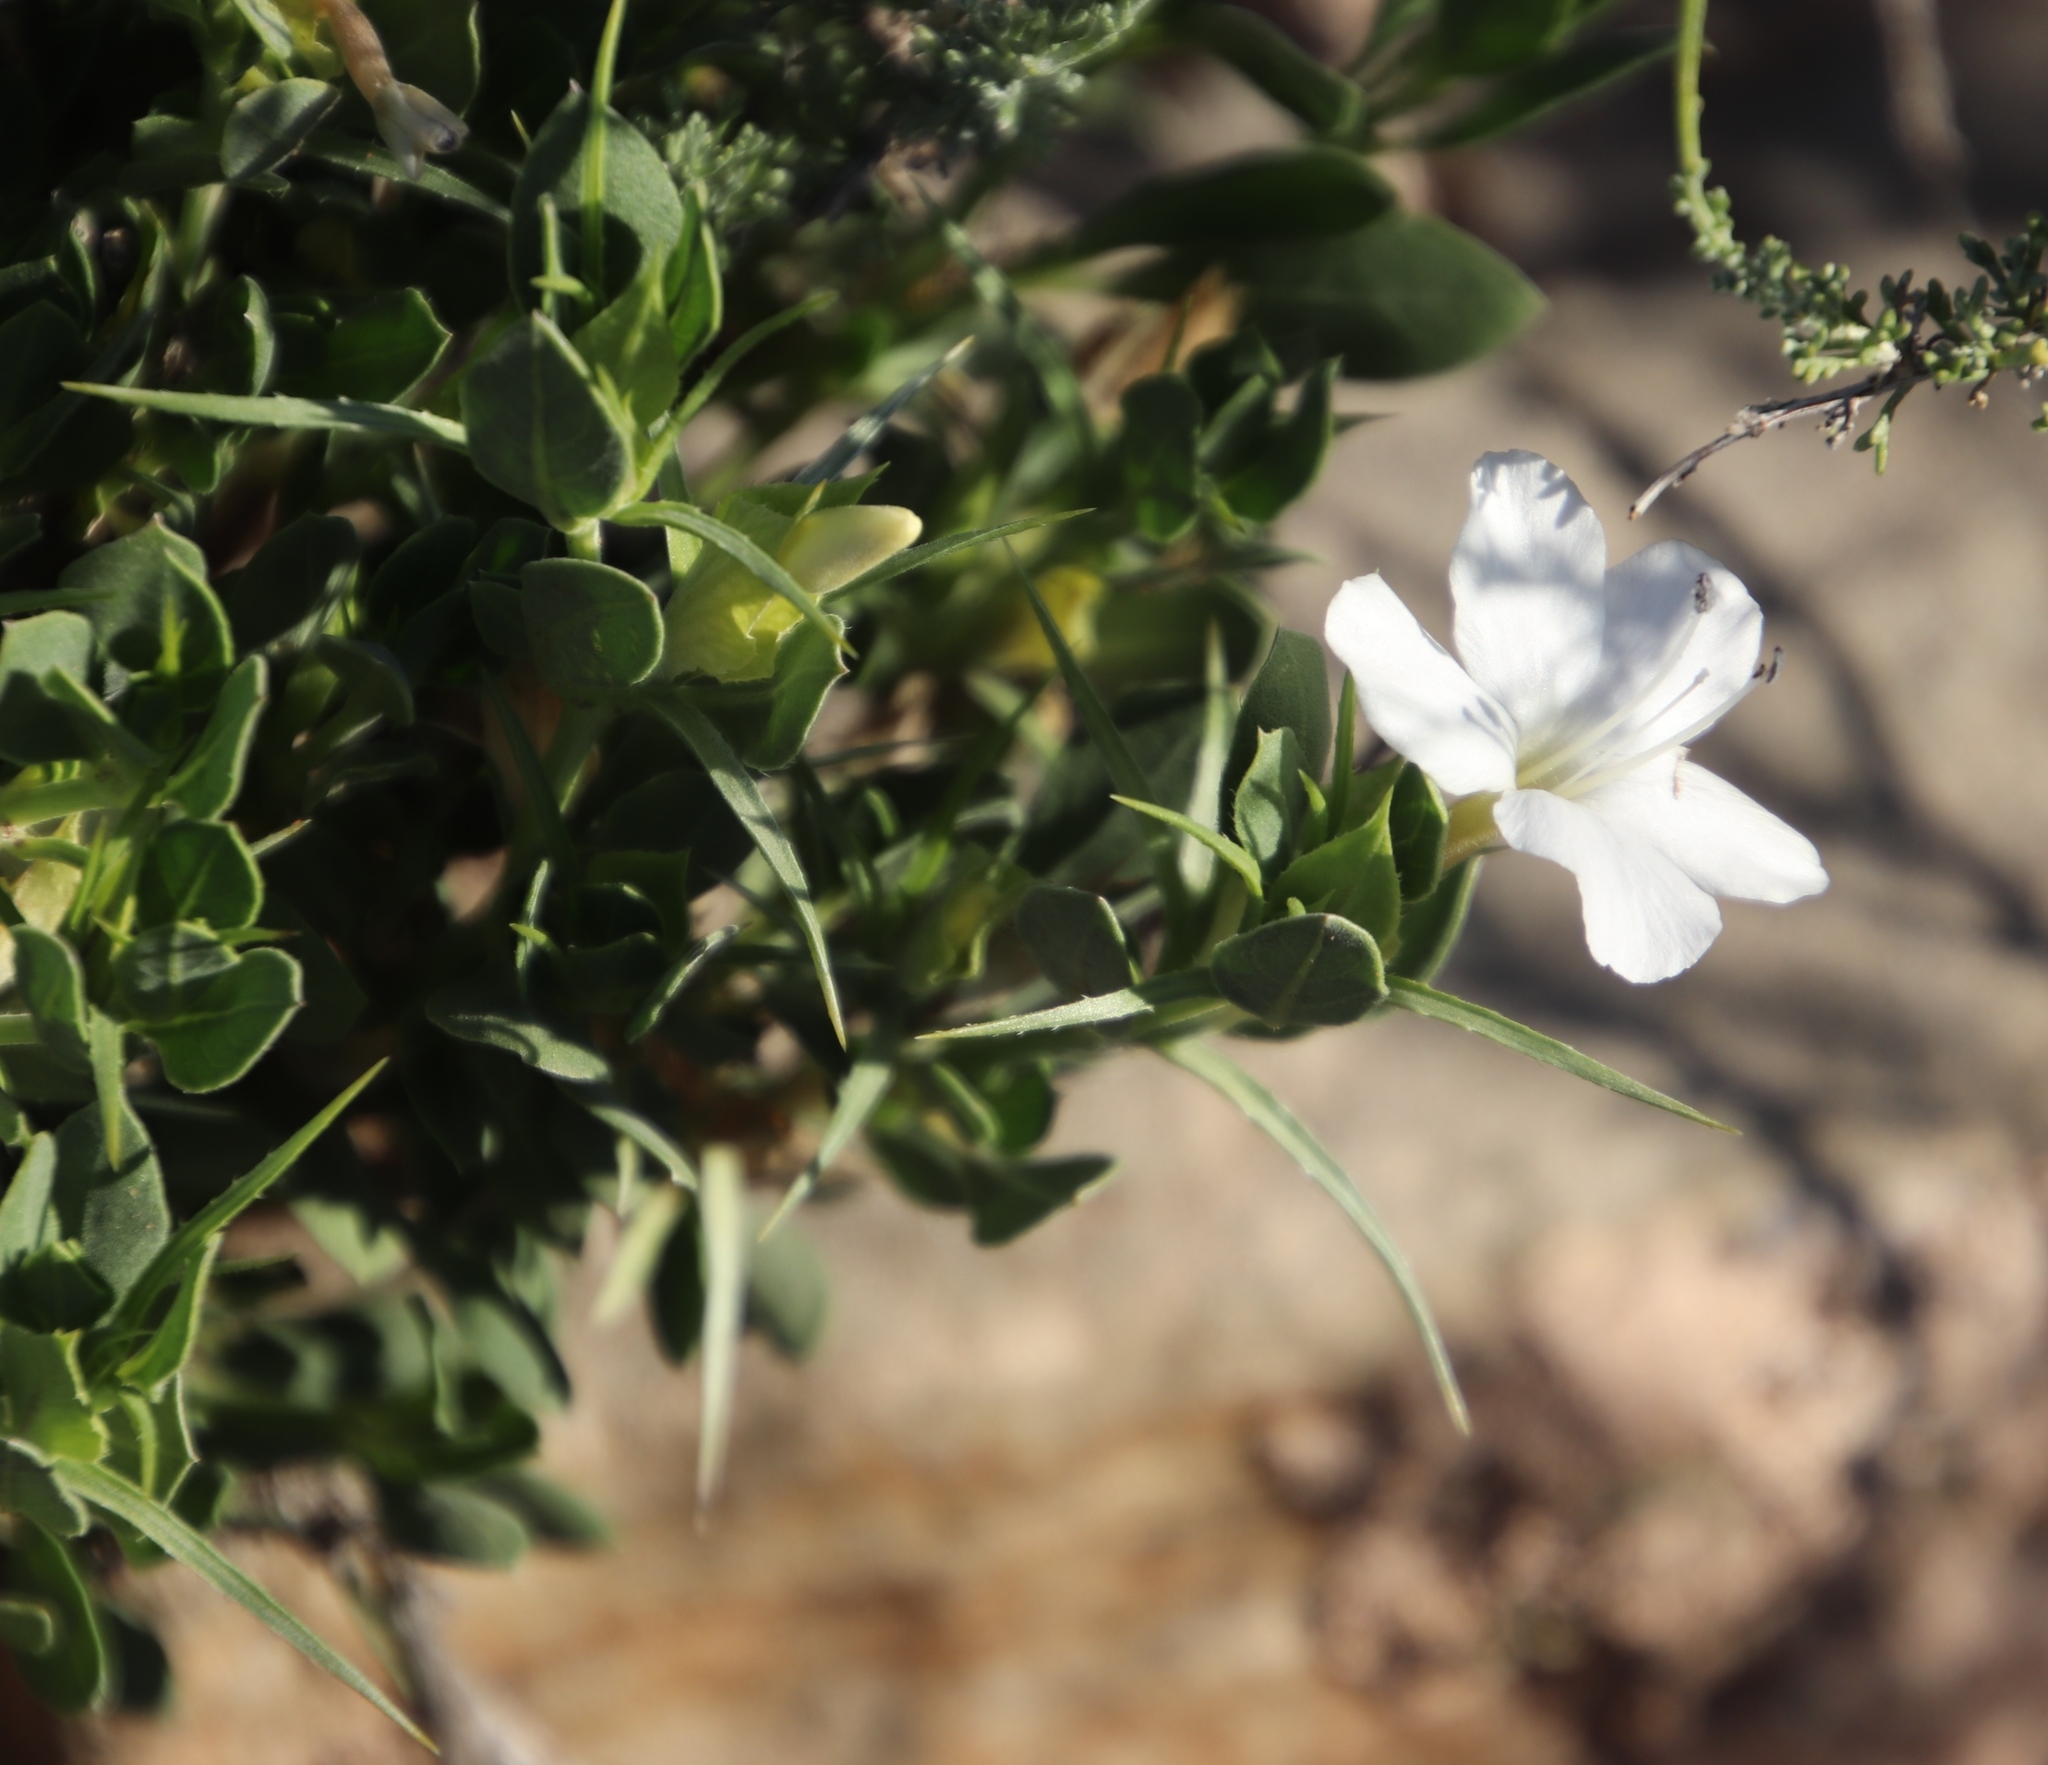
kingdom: Plantae
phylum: Tracheophyta
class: Magnoliopsida
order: Lamiales
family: Acanthaceae
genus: Barleria
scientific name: Barleria stimulans
